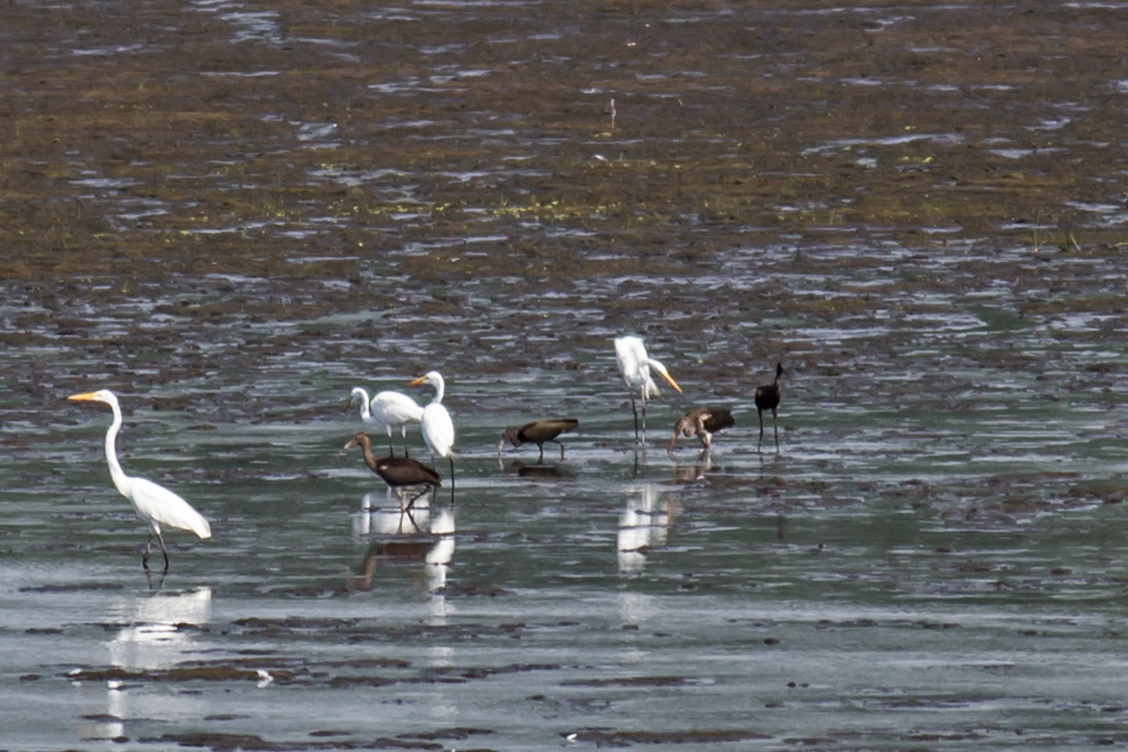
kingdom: Animalia
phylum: Chordata
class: Aves
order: Pelecaniformes
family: Threskiornithidae
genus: Eudocimus
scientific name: Eudocimus albus
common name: White ibis
